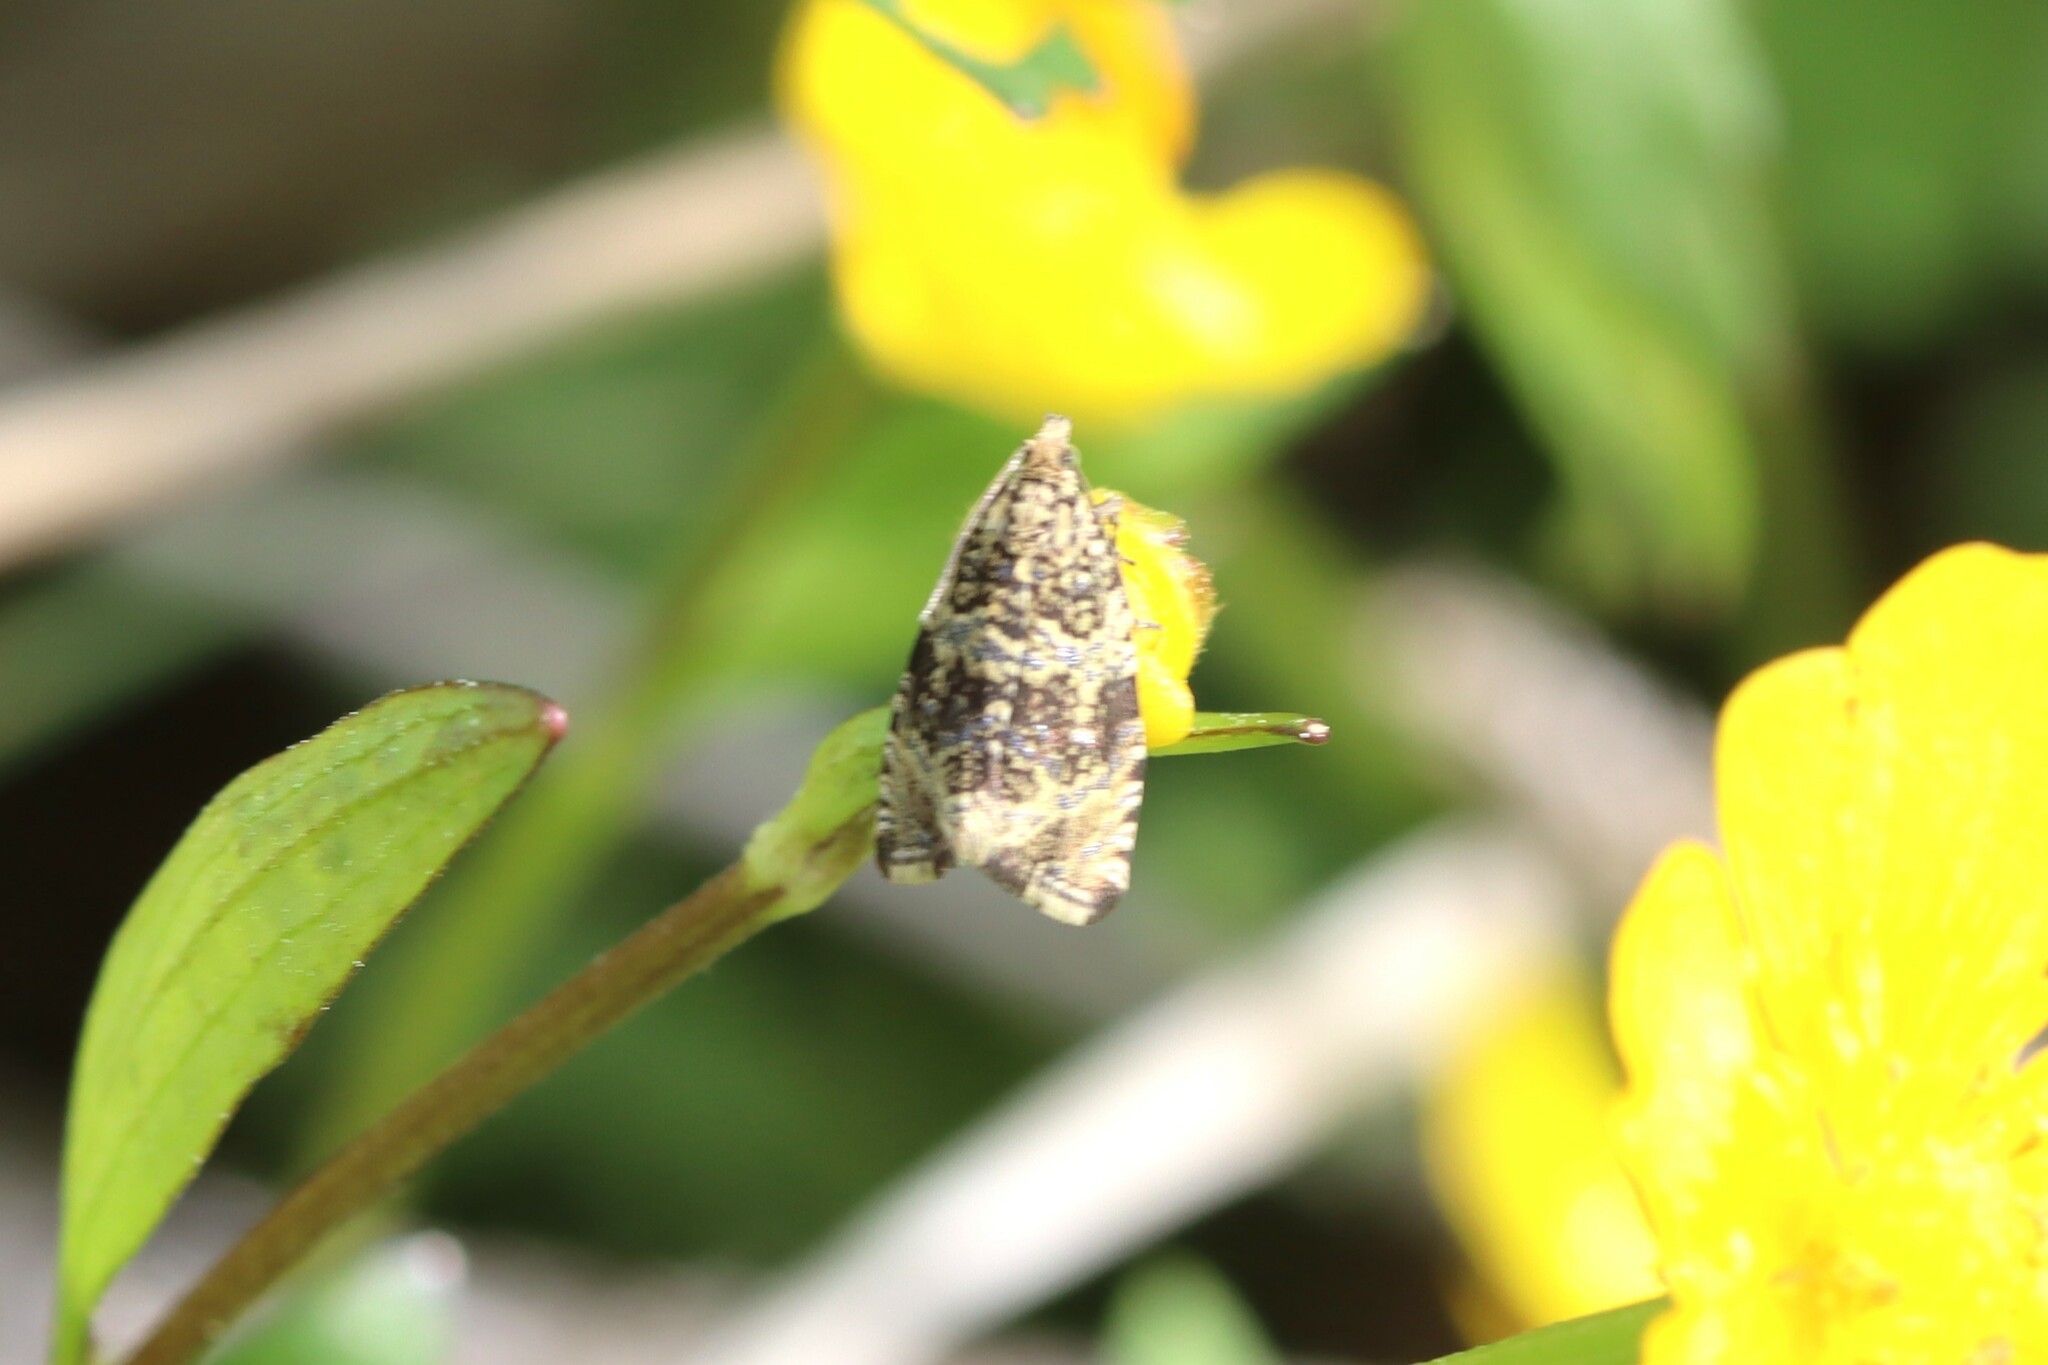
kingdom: Animalia
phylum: Arthropoda
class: Insecta
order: Lepidoptera
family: Tortricidae
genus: Syricoris
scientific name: Syricoris lacunana
